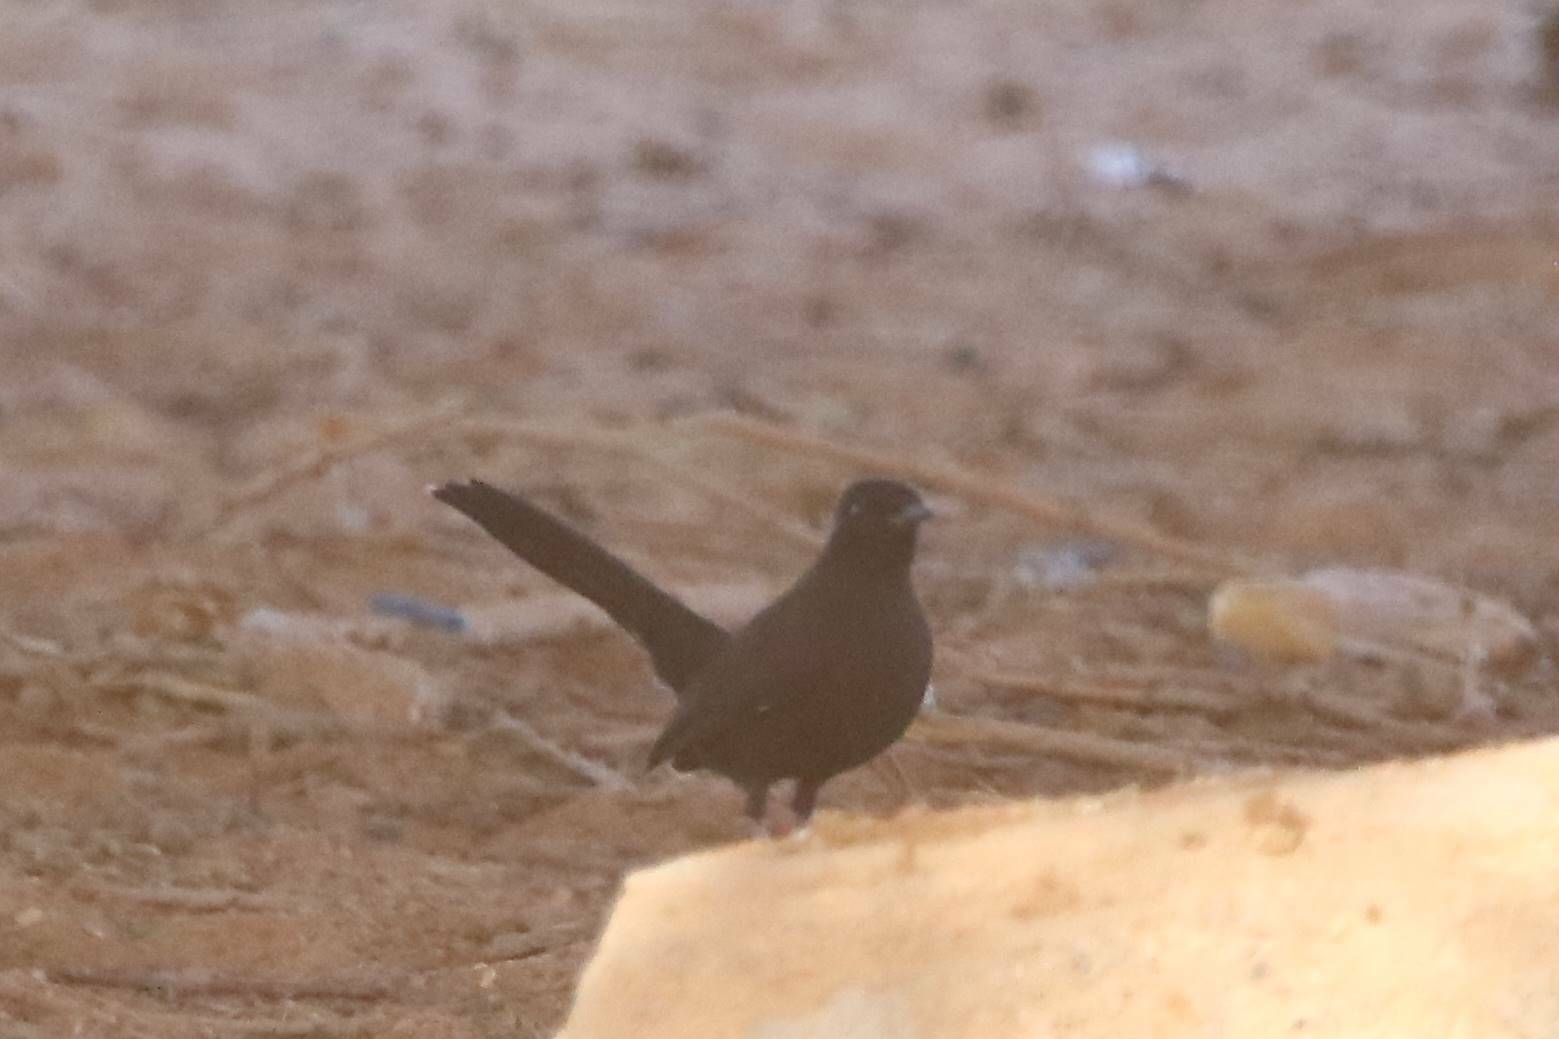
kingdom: Animalia
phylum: Chordata
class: Aves
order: Passeriformes
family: Muscicapidae
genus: Cercotrichas
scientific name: Cercotrichas podobe
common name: Black scrub robin
